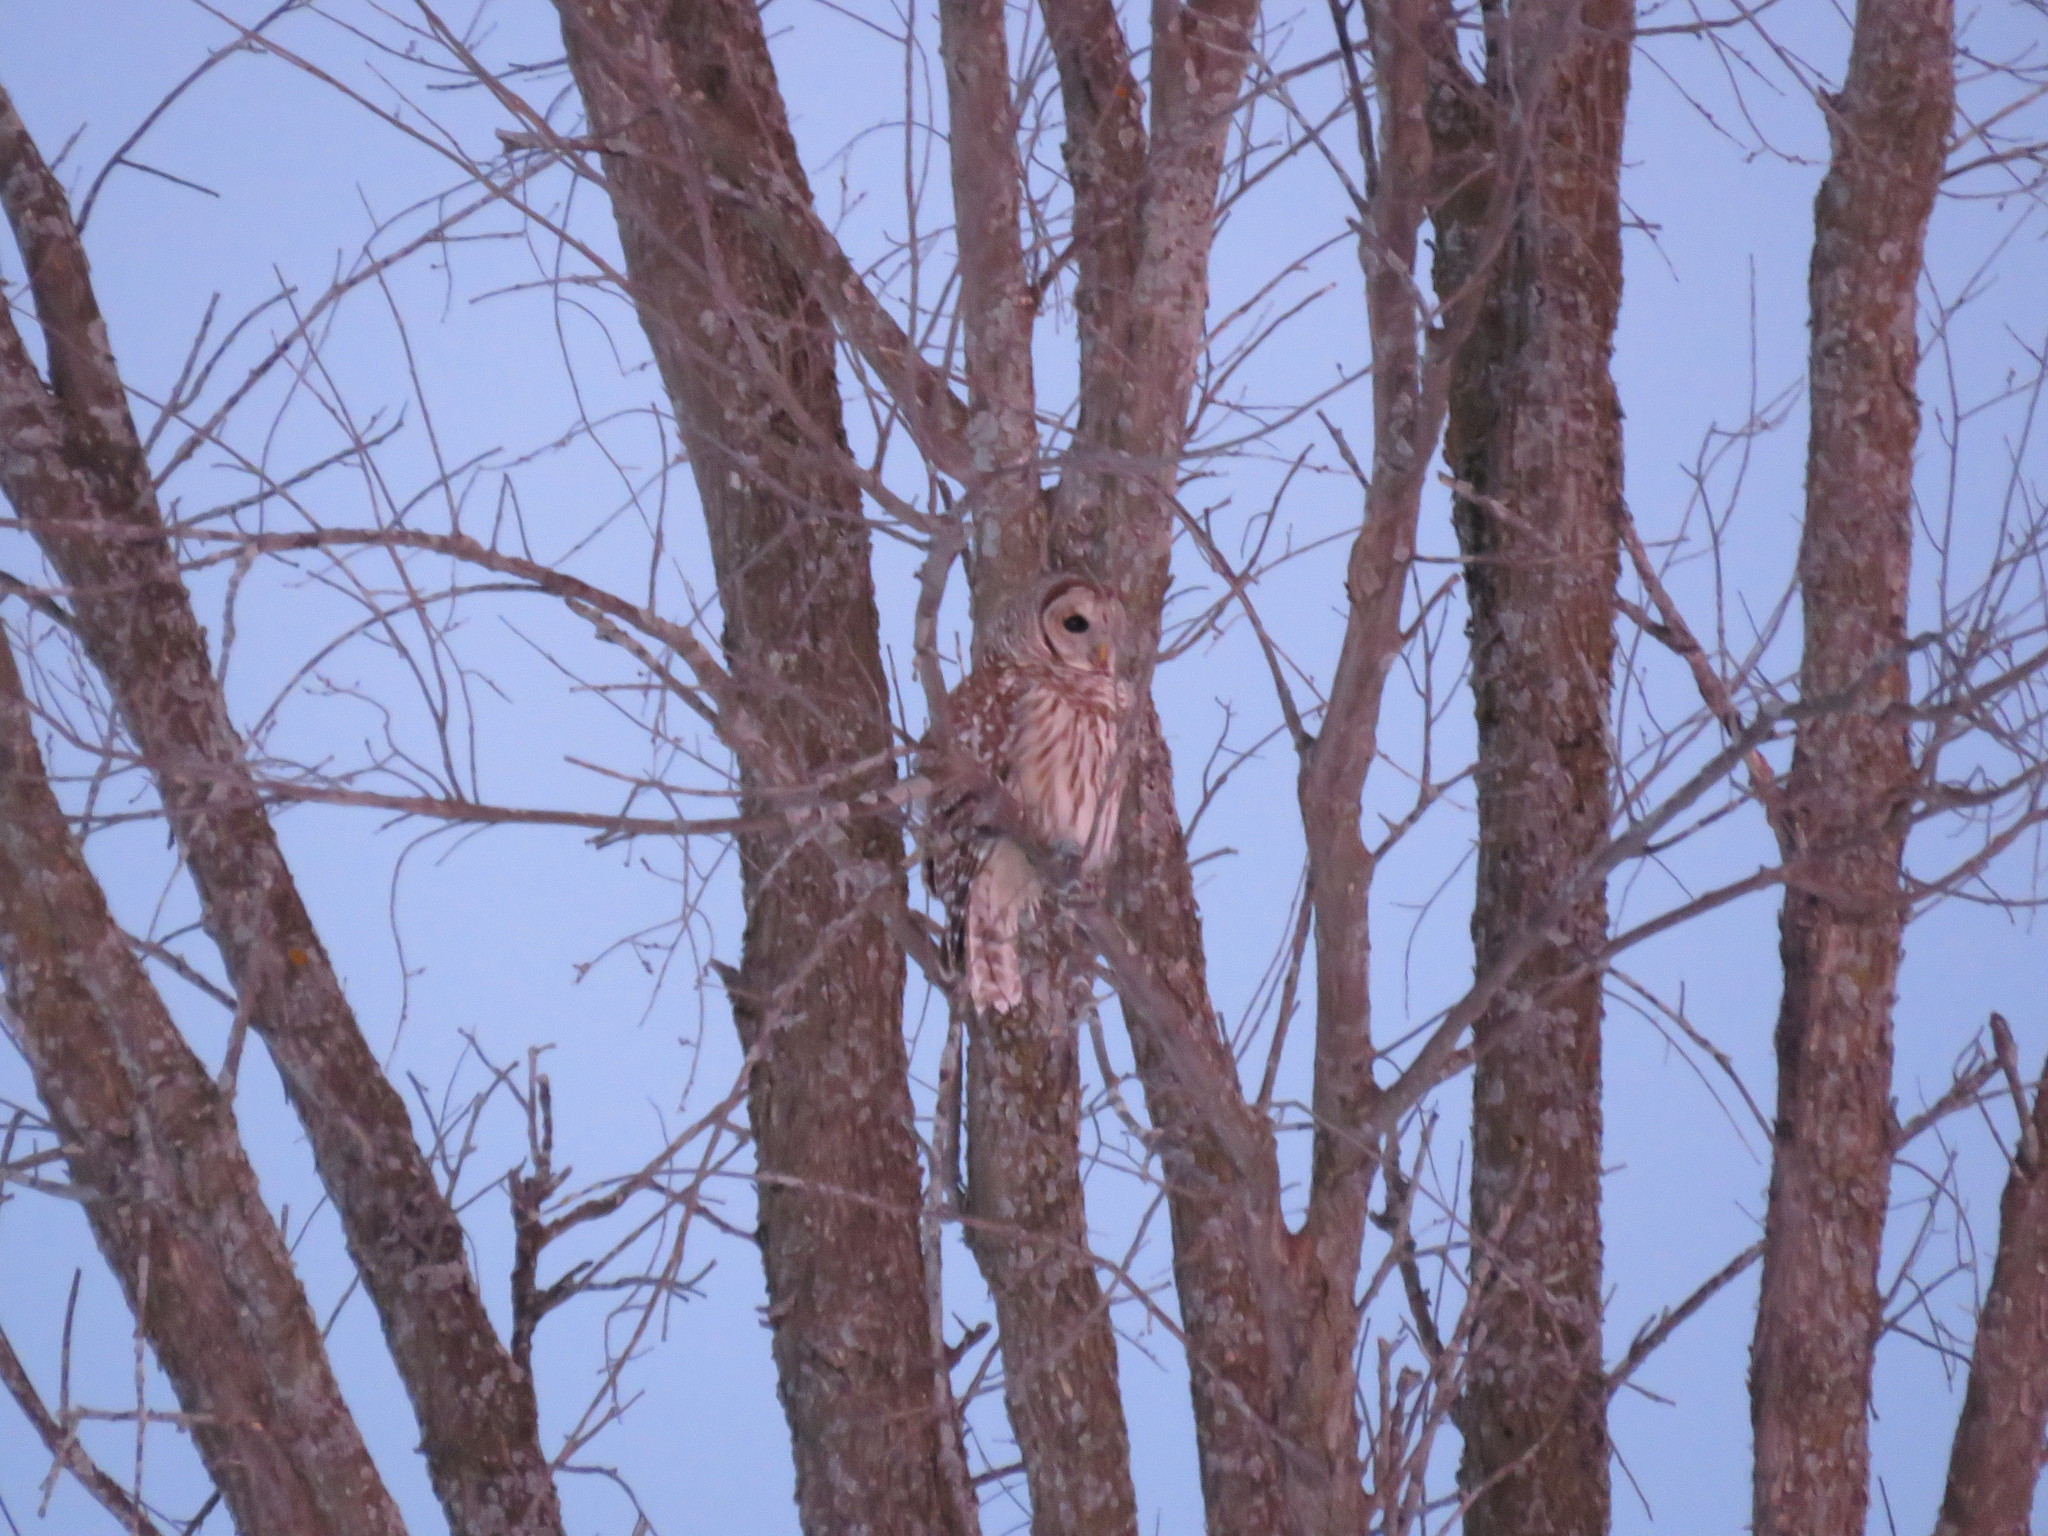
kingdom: Animalia
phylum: Chordata
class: Aves
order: Strigiformes
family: Strigidae
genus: Strix
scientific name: Strix varia
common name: Barred owl
